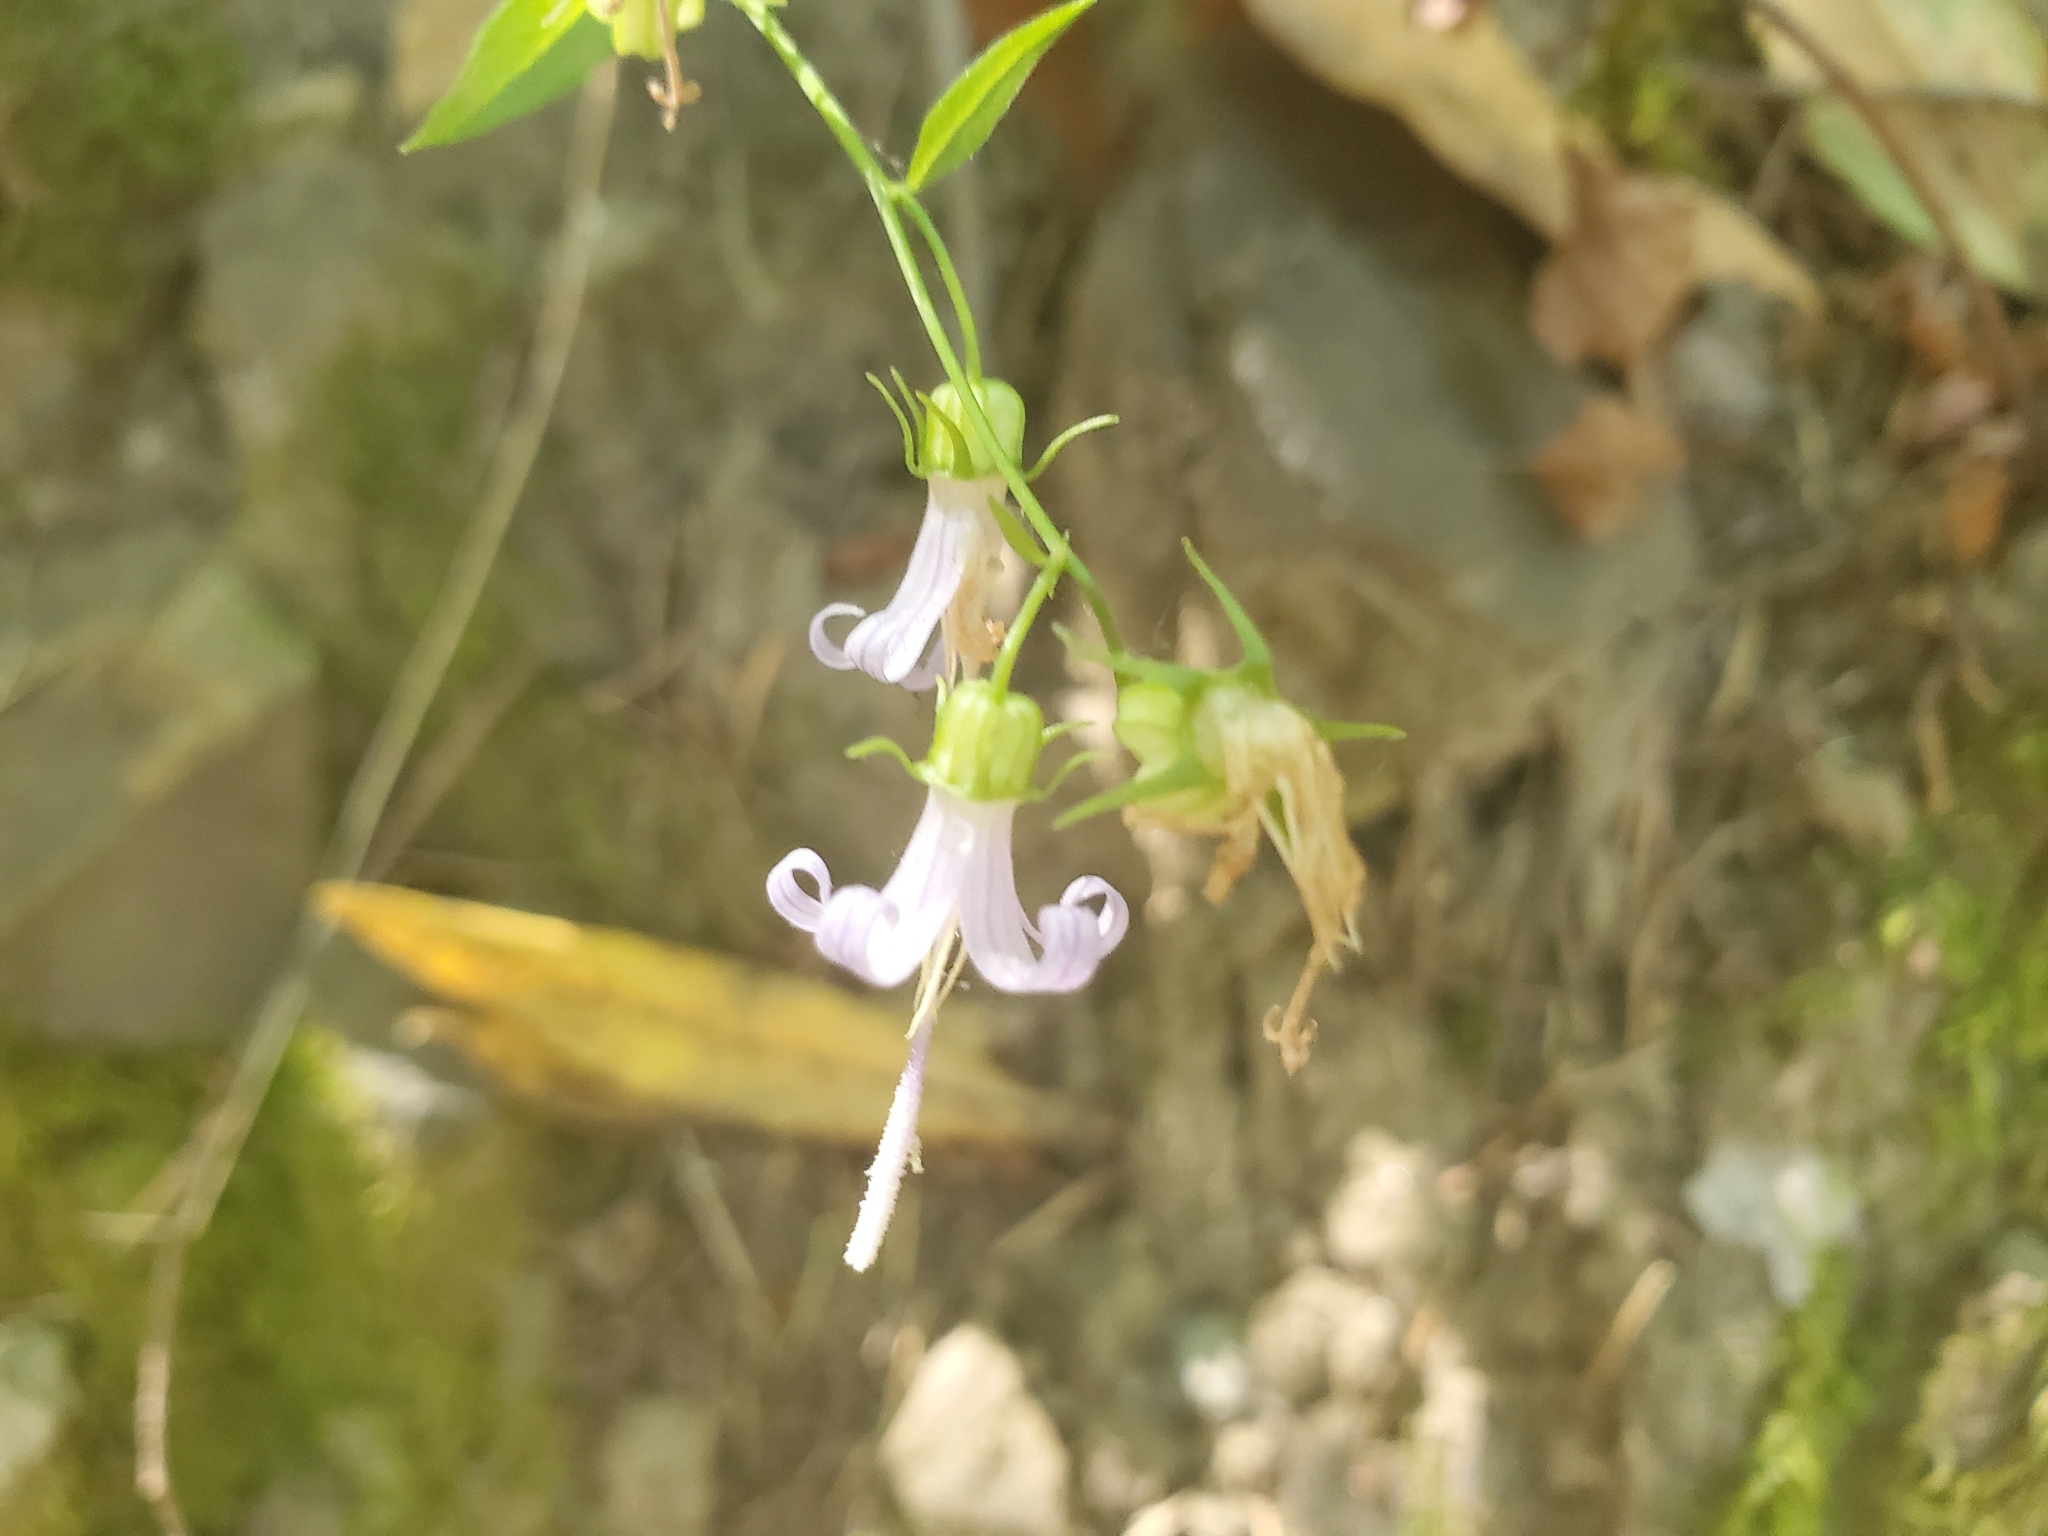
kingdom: Plantae
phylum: Tracheophyta
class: Magnoliopsida
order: Asterales
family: Campanulaceae
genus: Smithiastrum
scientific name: Smithiastrum prenanthoides
